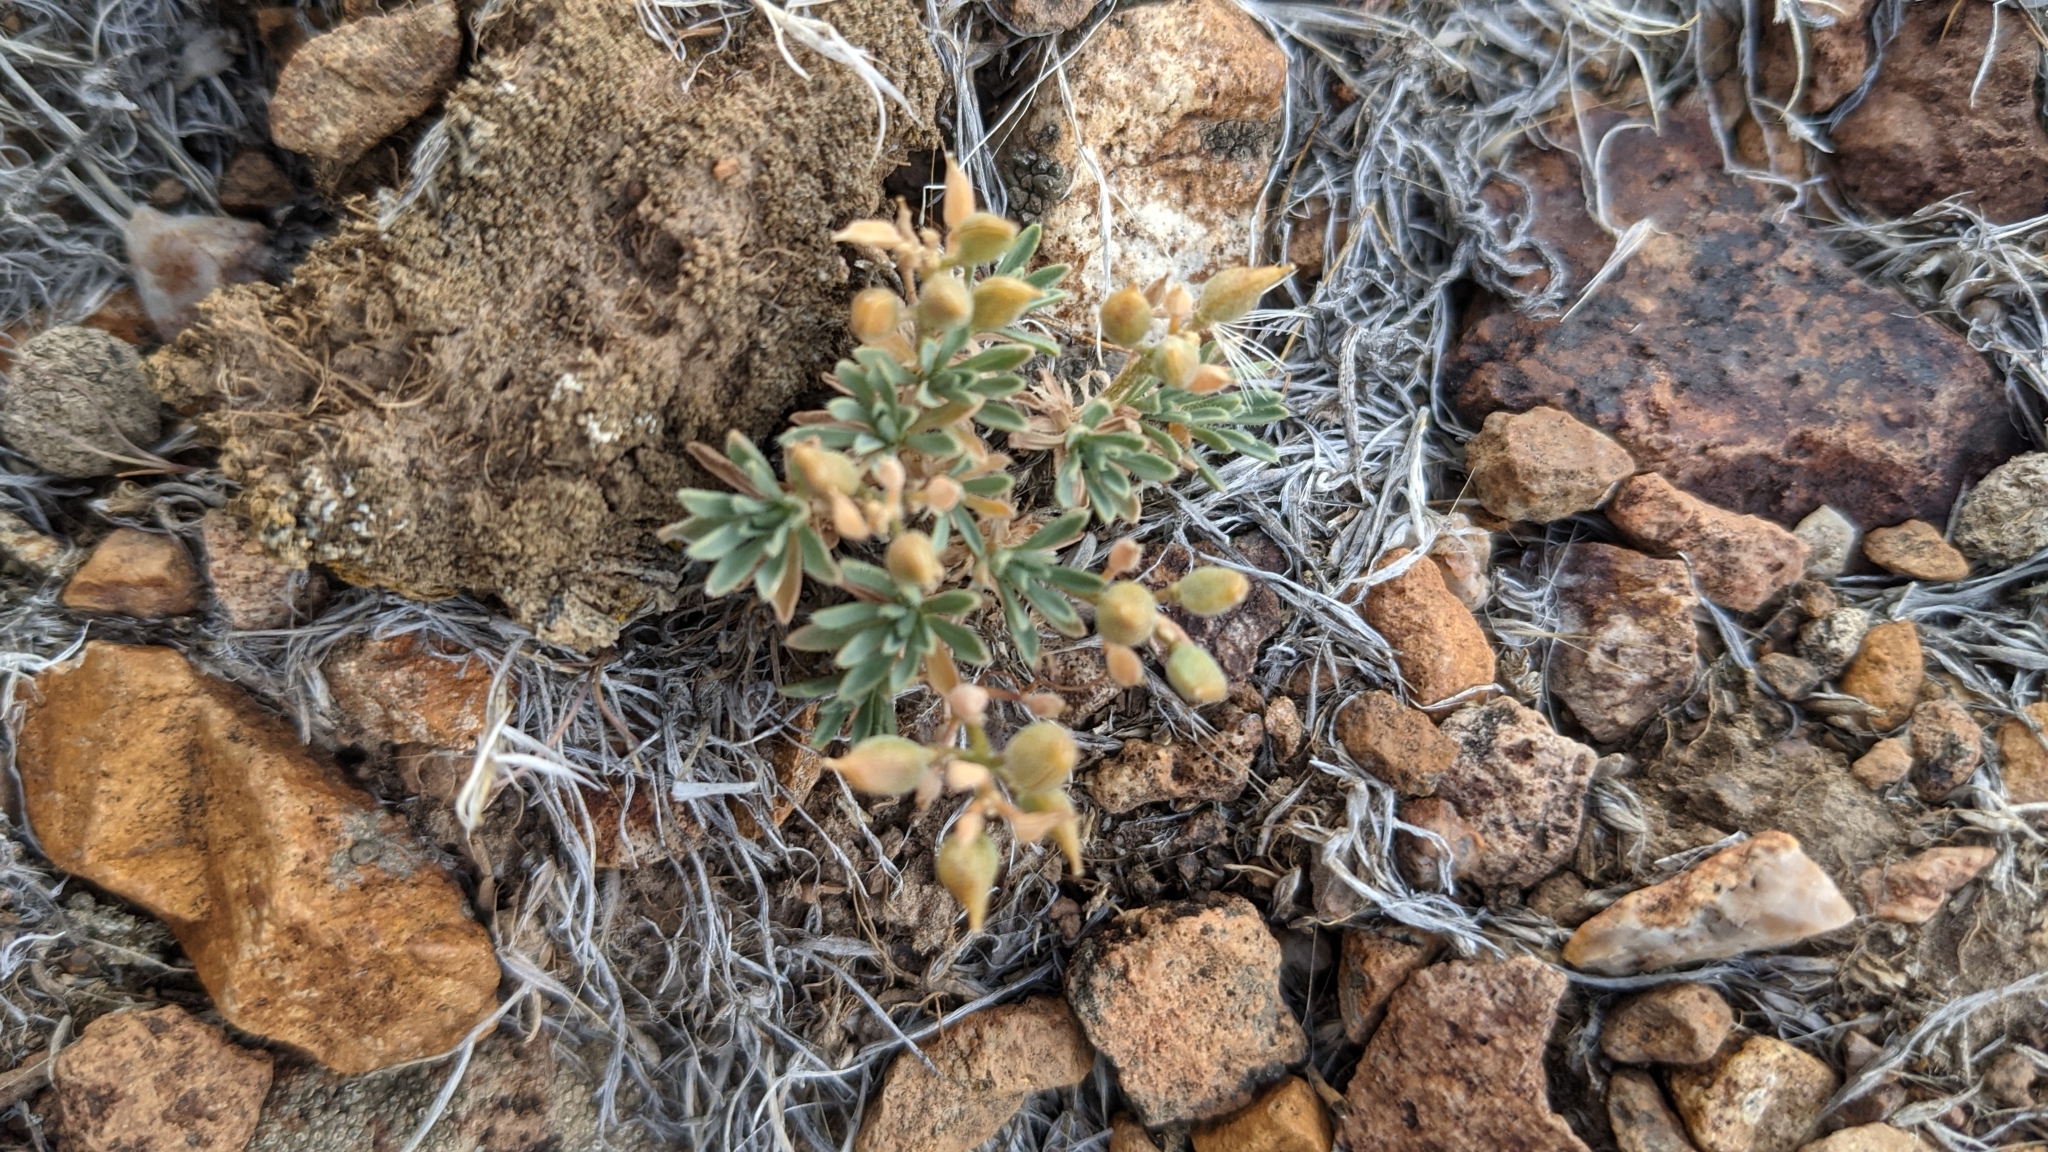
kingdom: Plantae
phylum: Tracheophyta
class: Magnoliopsida
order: Brassicales
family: Brassicaceae
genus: Cusickiella
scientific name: Cusickiella douglasii
